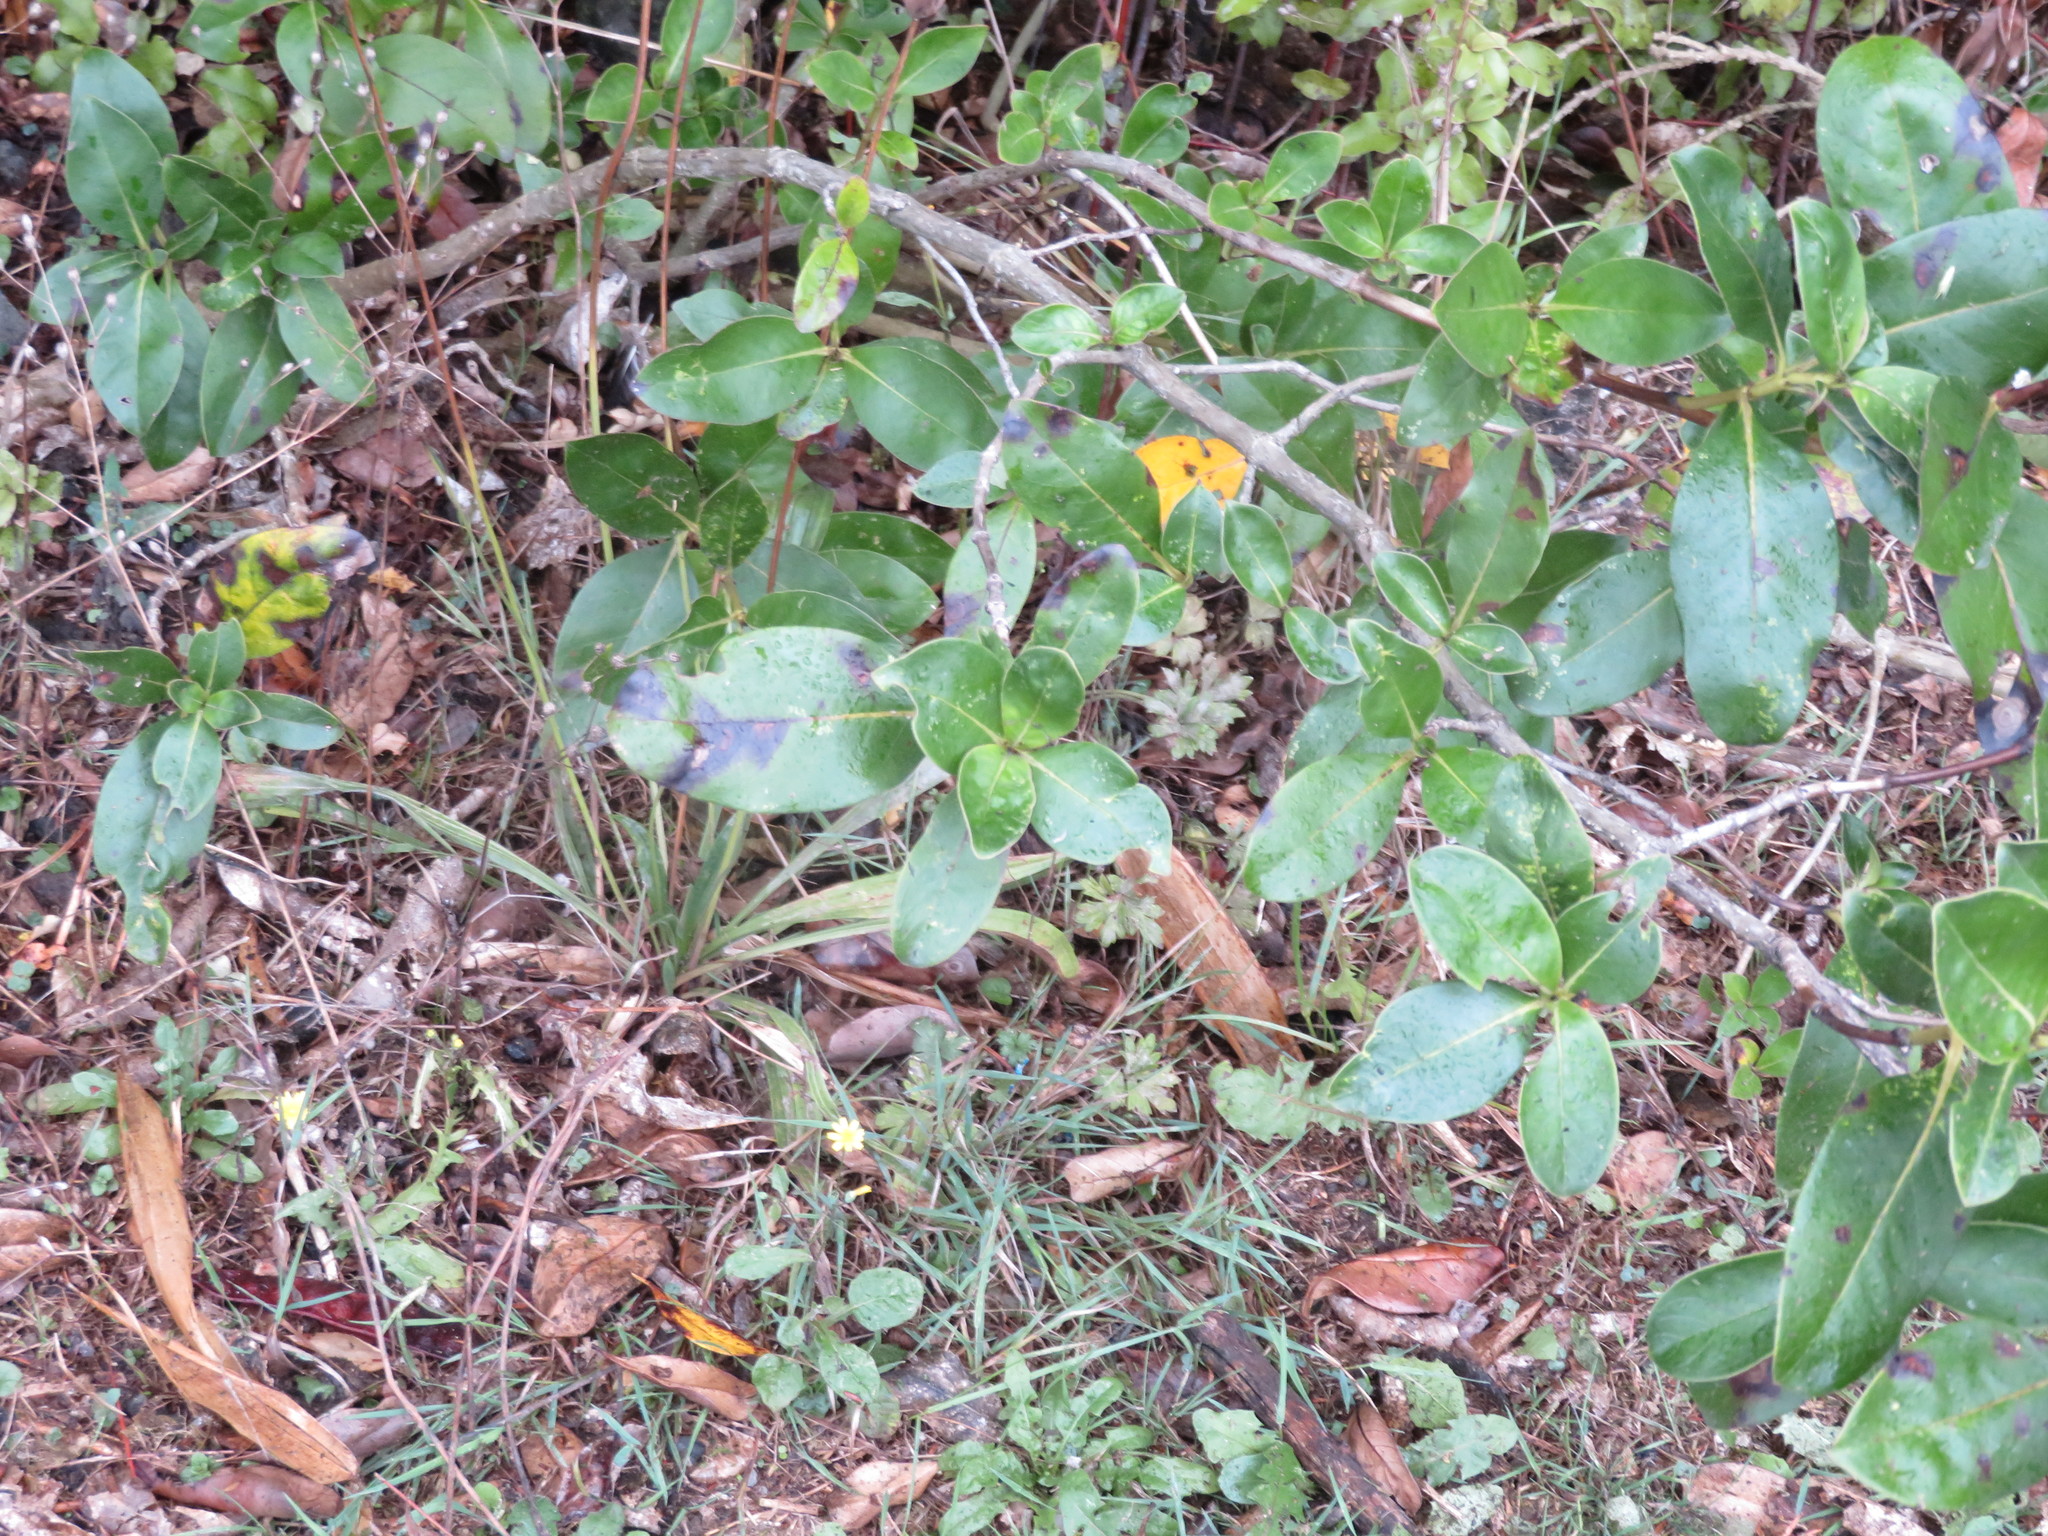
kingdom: Plantae
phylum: Tracheophyta
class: Magnoliopsida
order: Gentianales
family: Rubiaceae
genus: Coprosma
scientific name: Coprosma robusta
